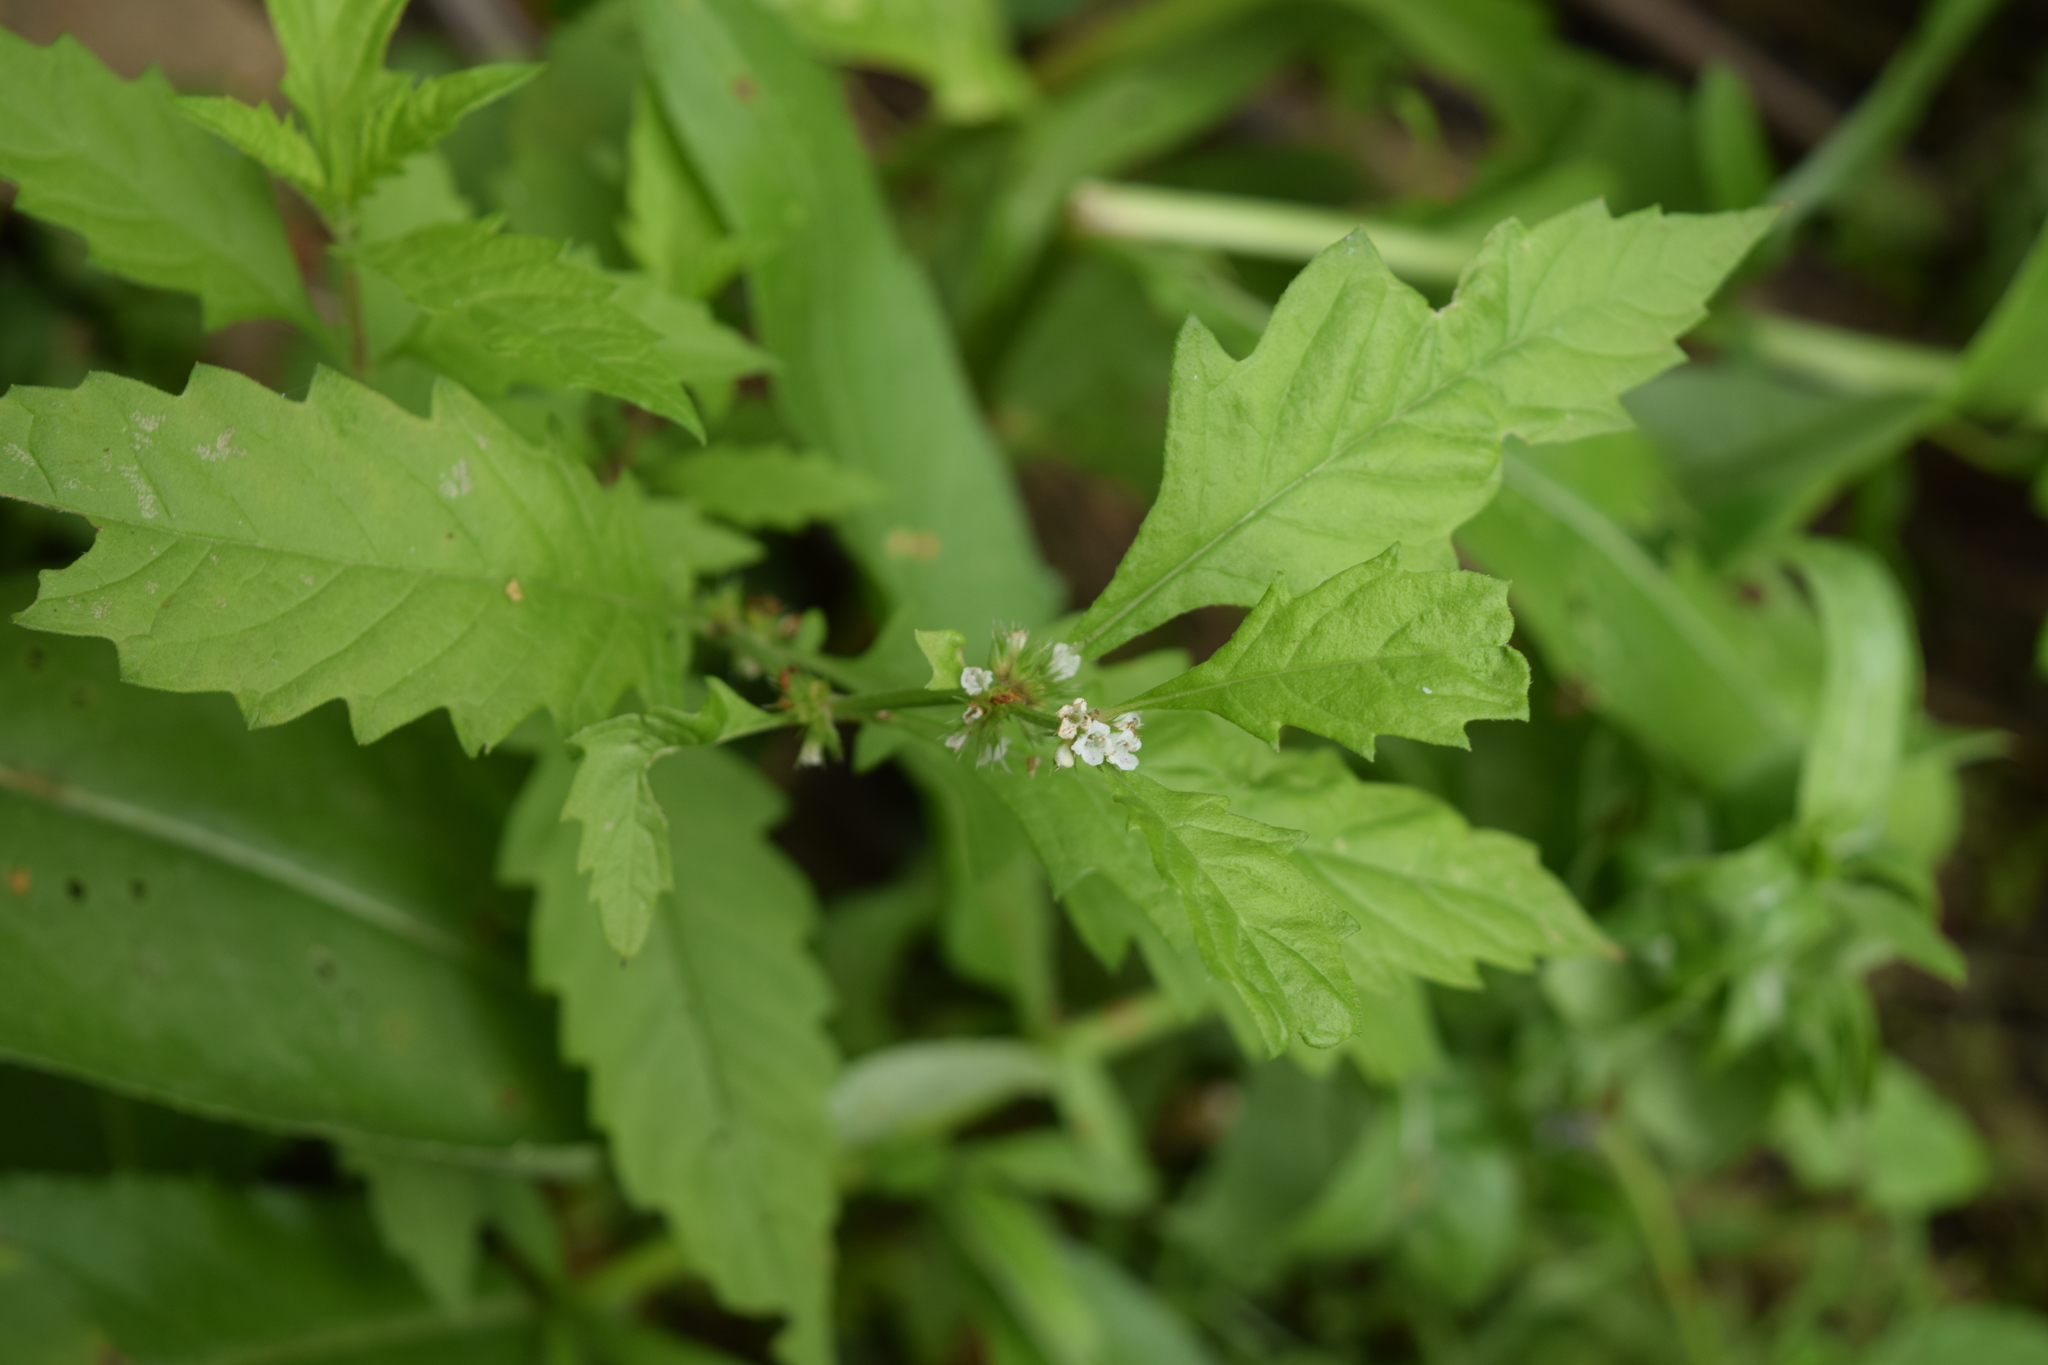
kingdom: Plantae
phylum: Tracheophyta
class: Magnoliopsida
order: Lamiales
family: Lamiaceae
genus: Lycopus
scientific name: Lycopus europaeus
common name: European bugleweed
